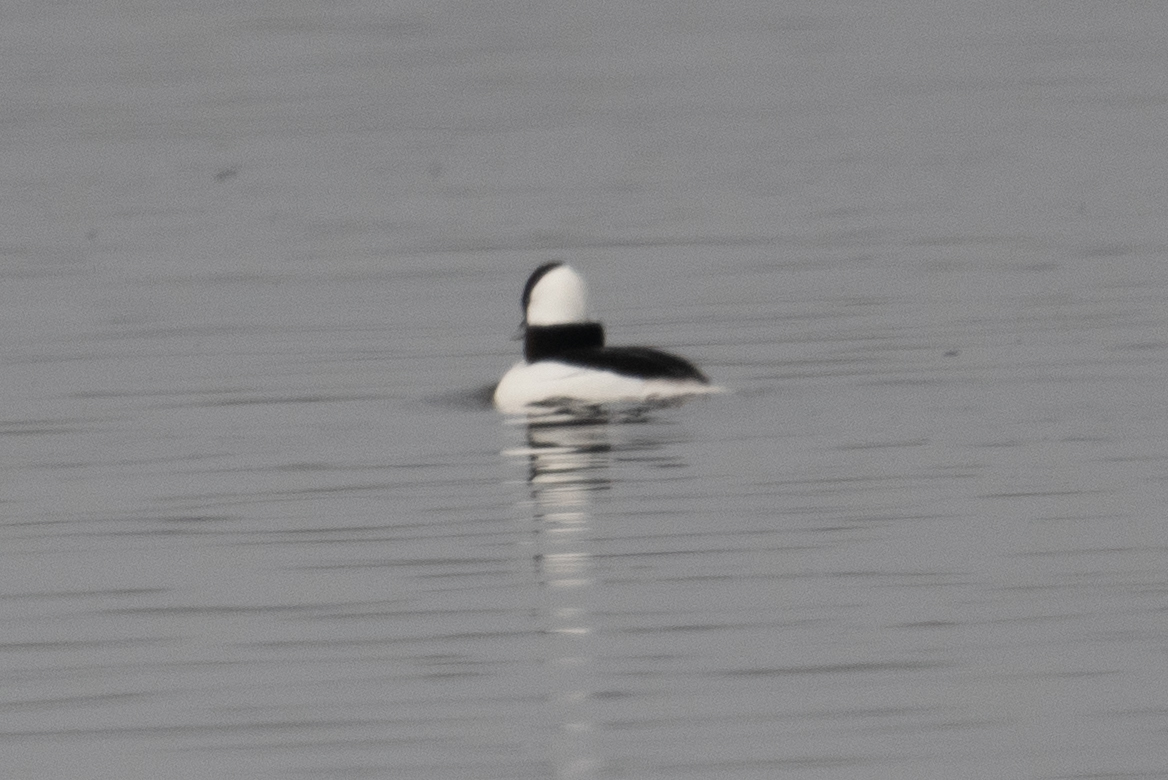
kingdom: Animalia
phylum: Chordata
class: Aves
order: Anseriformes
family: Anatidae
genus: Bucephala
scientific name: Bucephala albeola
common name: Bufflehead
